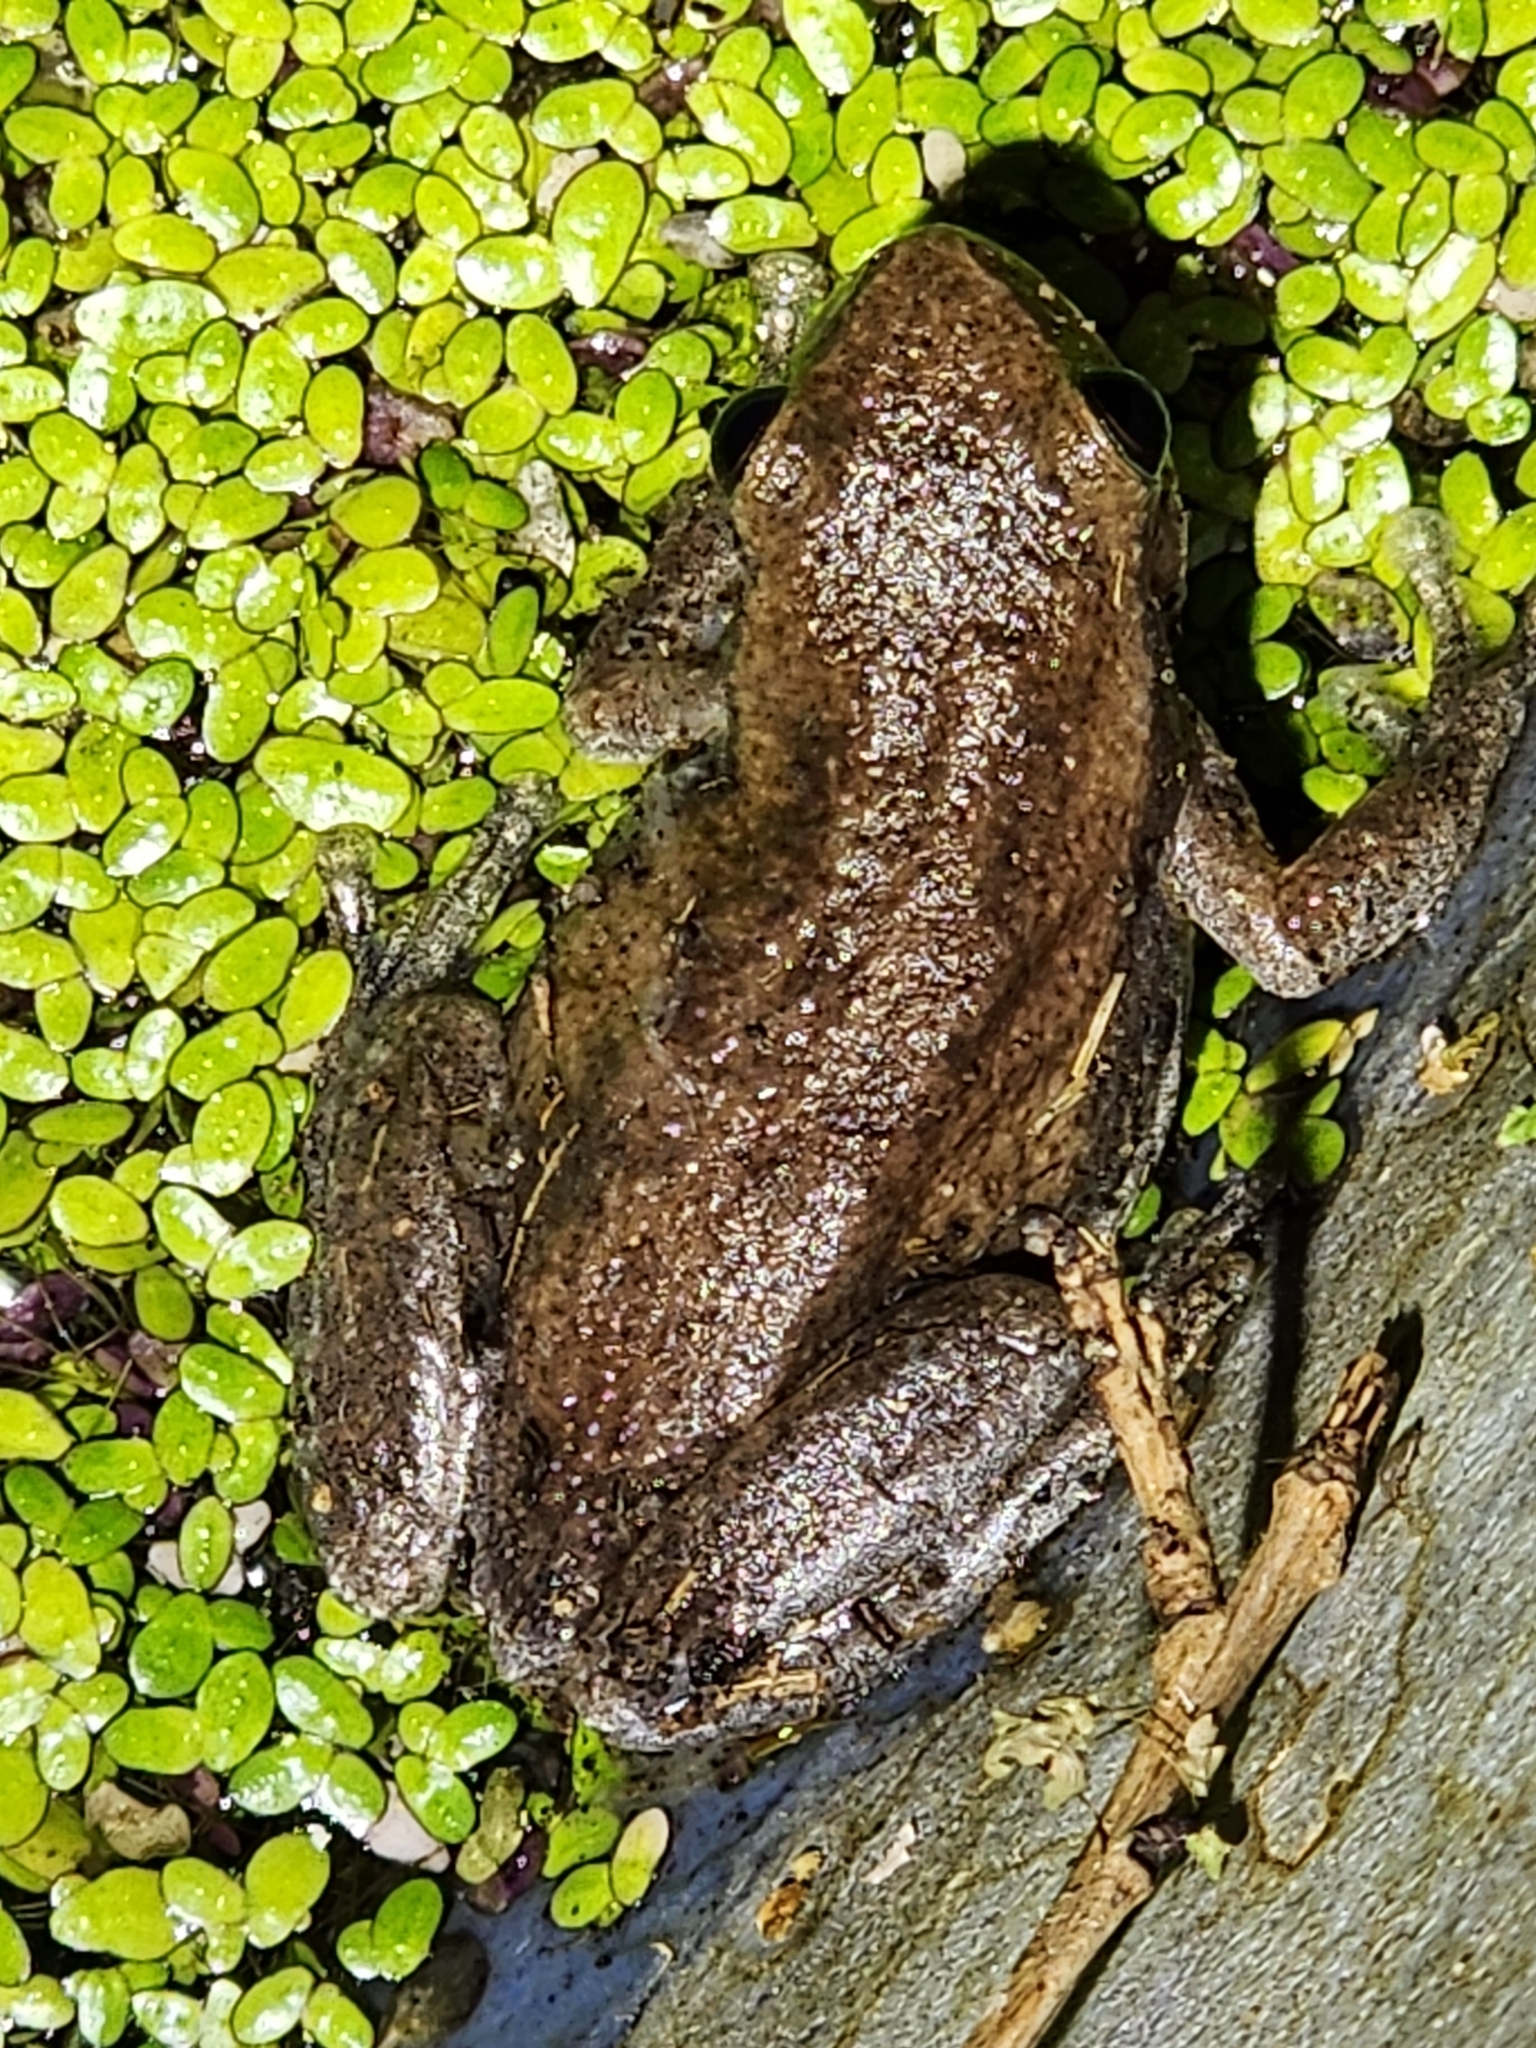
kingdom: Animalia
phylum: Chordata
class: Amphibia
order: Anura
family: Pelodryadidae
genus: Litoria
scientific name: Litoria rubella
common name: Desert tree frog
